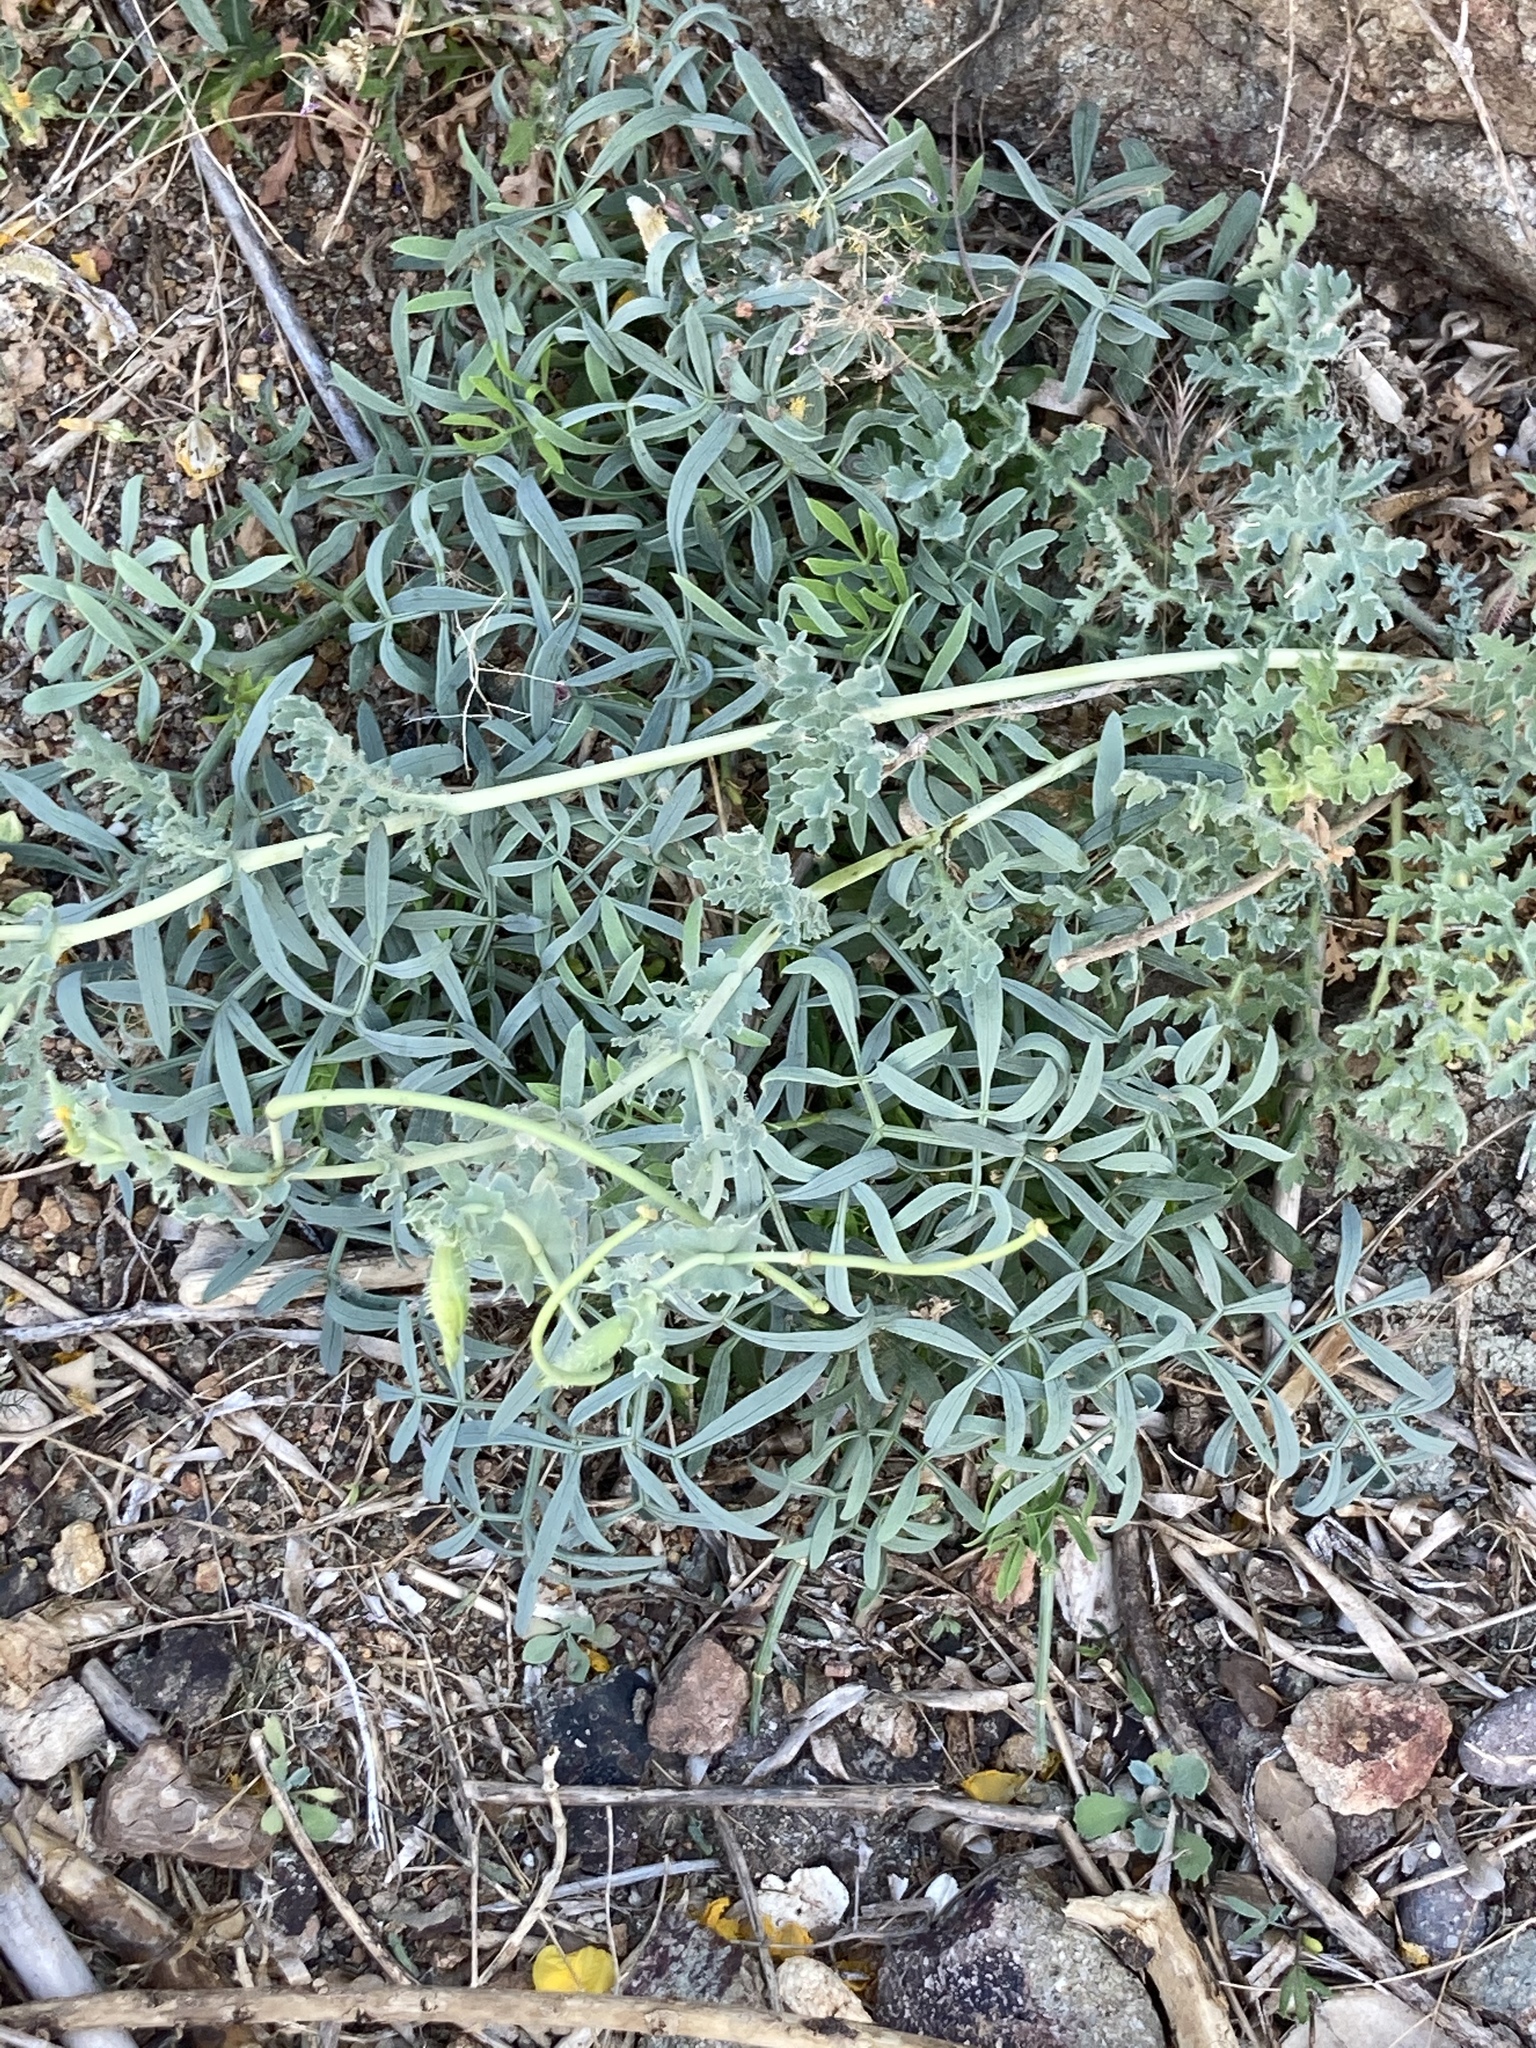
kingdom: Plantae
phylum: Tracheophyta
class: Magnoliopsida
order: Apiales
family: Apiaceae
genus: Crithmum
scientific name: Crithmum maritimum
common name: Rock samphire
